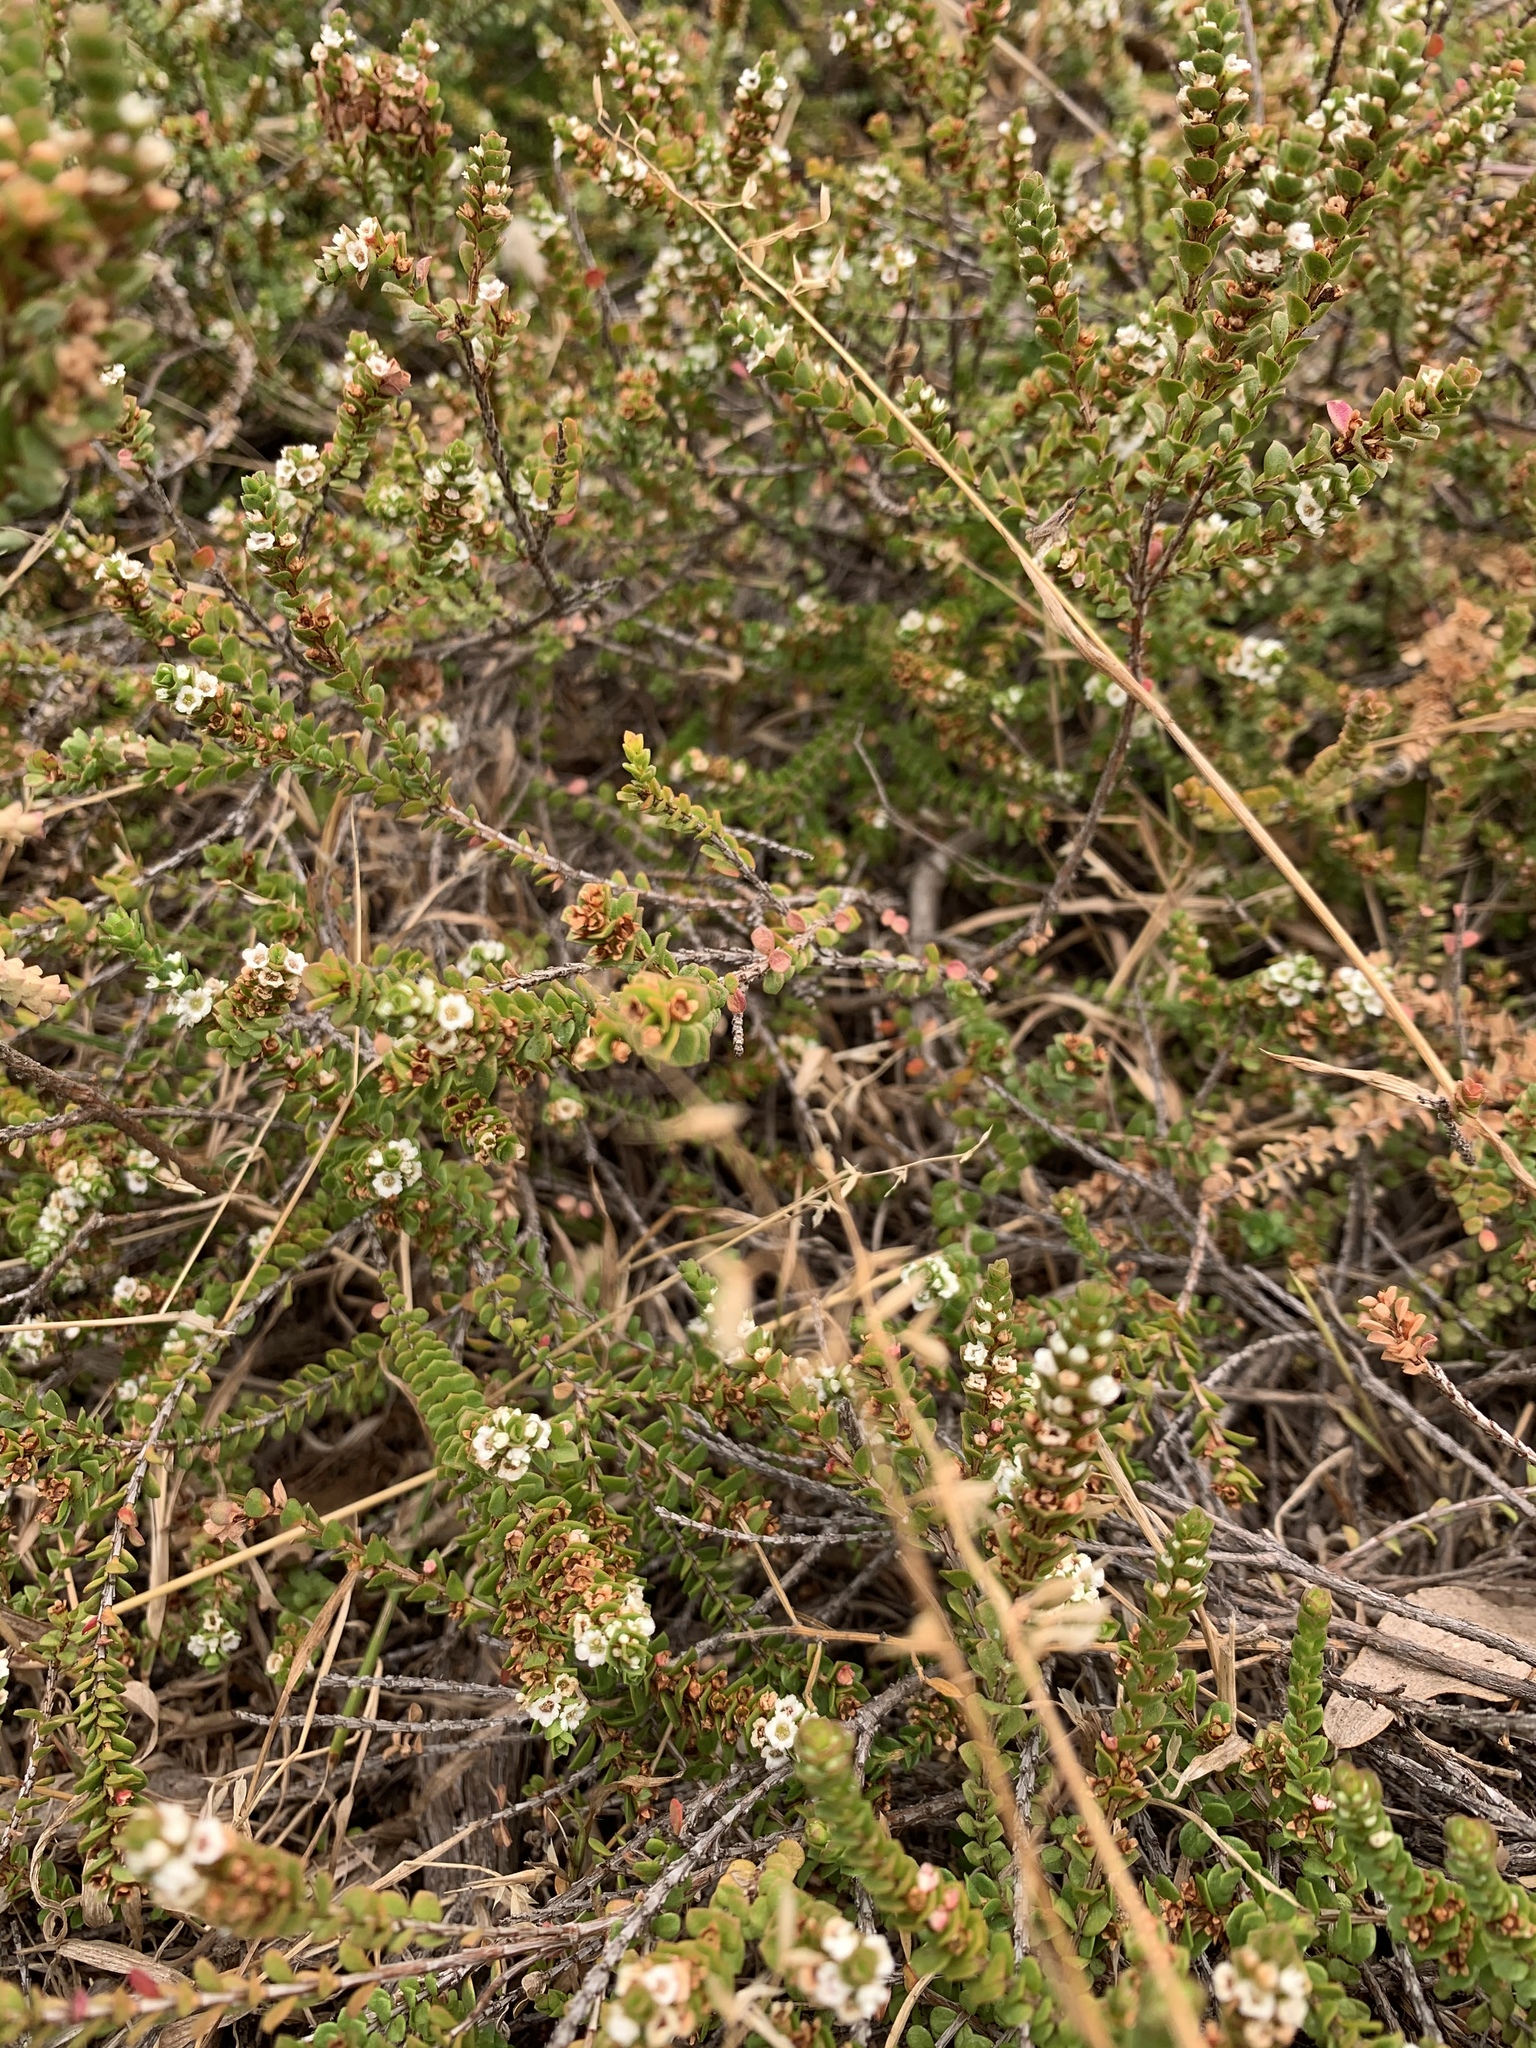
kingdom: Plantae
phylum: Tracheophyta
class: Magnoliopsida
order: Myrtales
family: Myrtaceae
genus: Baeckea
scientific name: Baeckea imbricata
